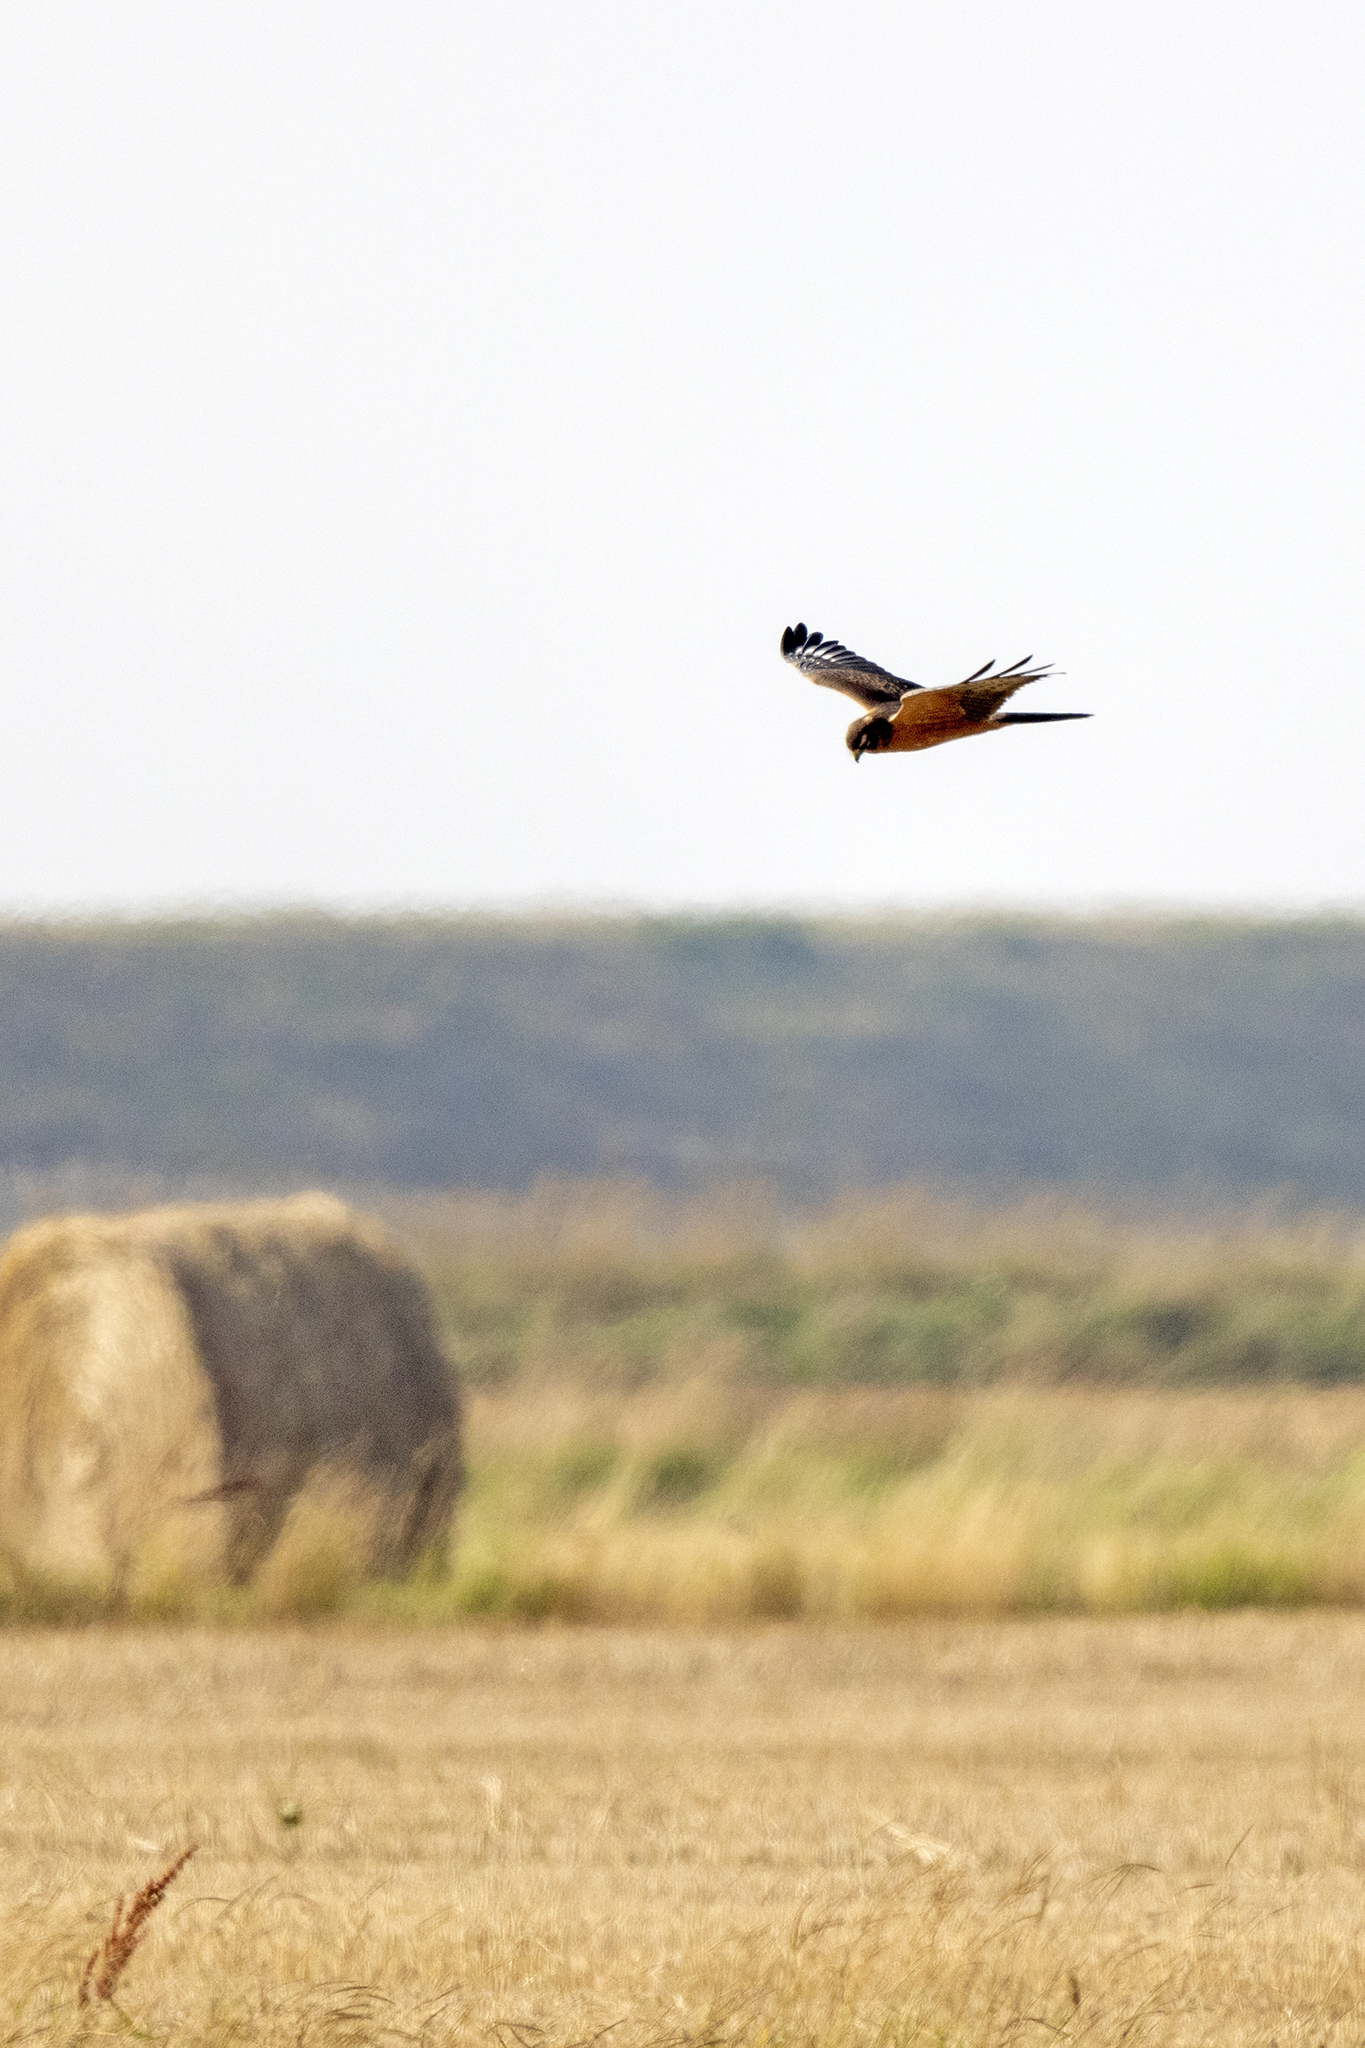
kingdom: Animalia
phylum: Chordata
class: Aves
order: Accipitriformes
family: Accipitridae
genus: Circus
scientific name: Circus pygargus
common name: Montagu's harrier
